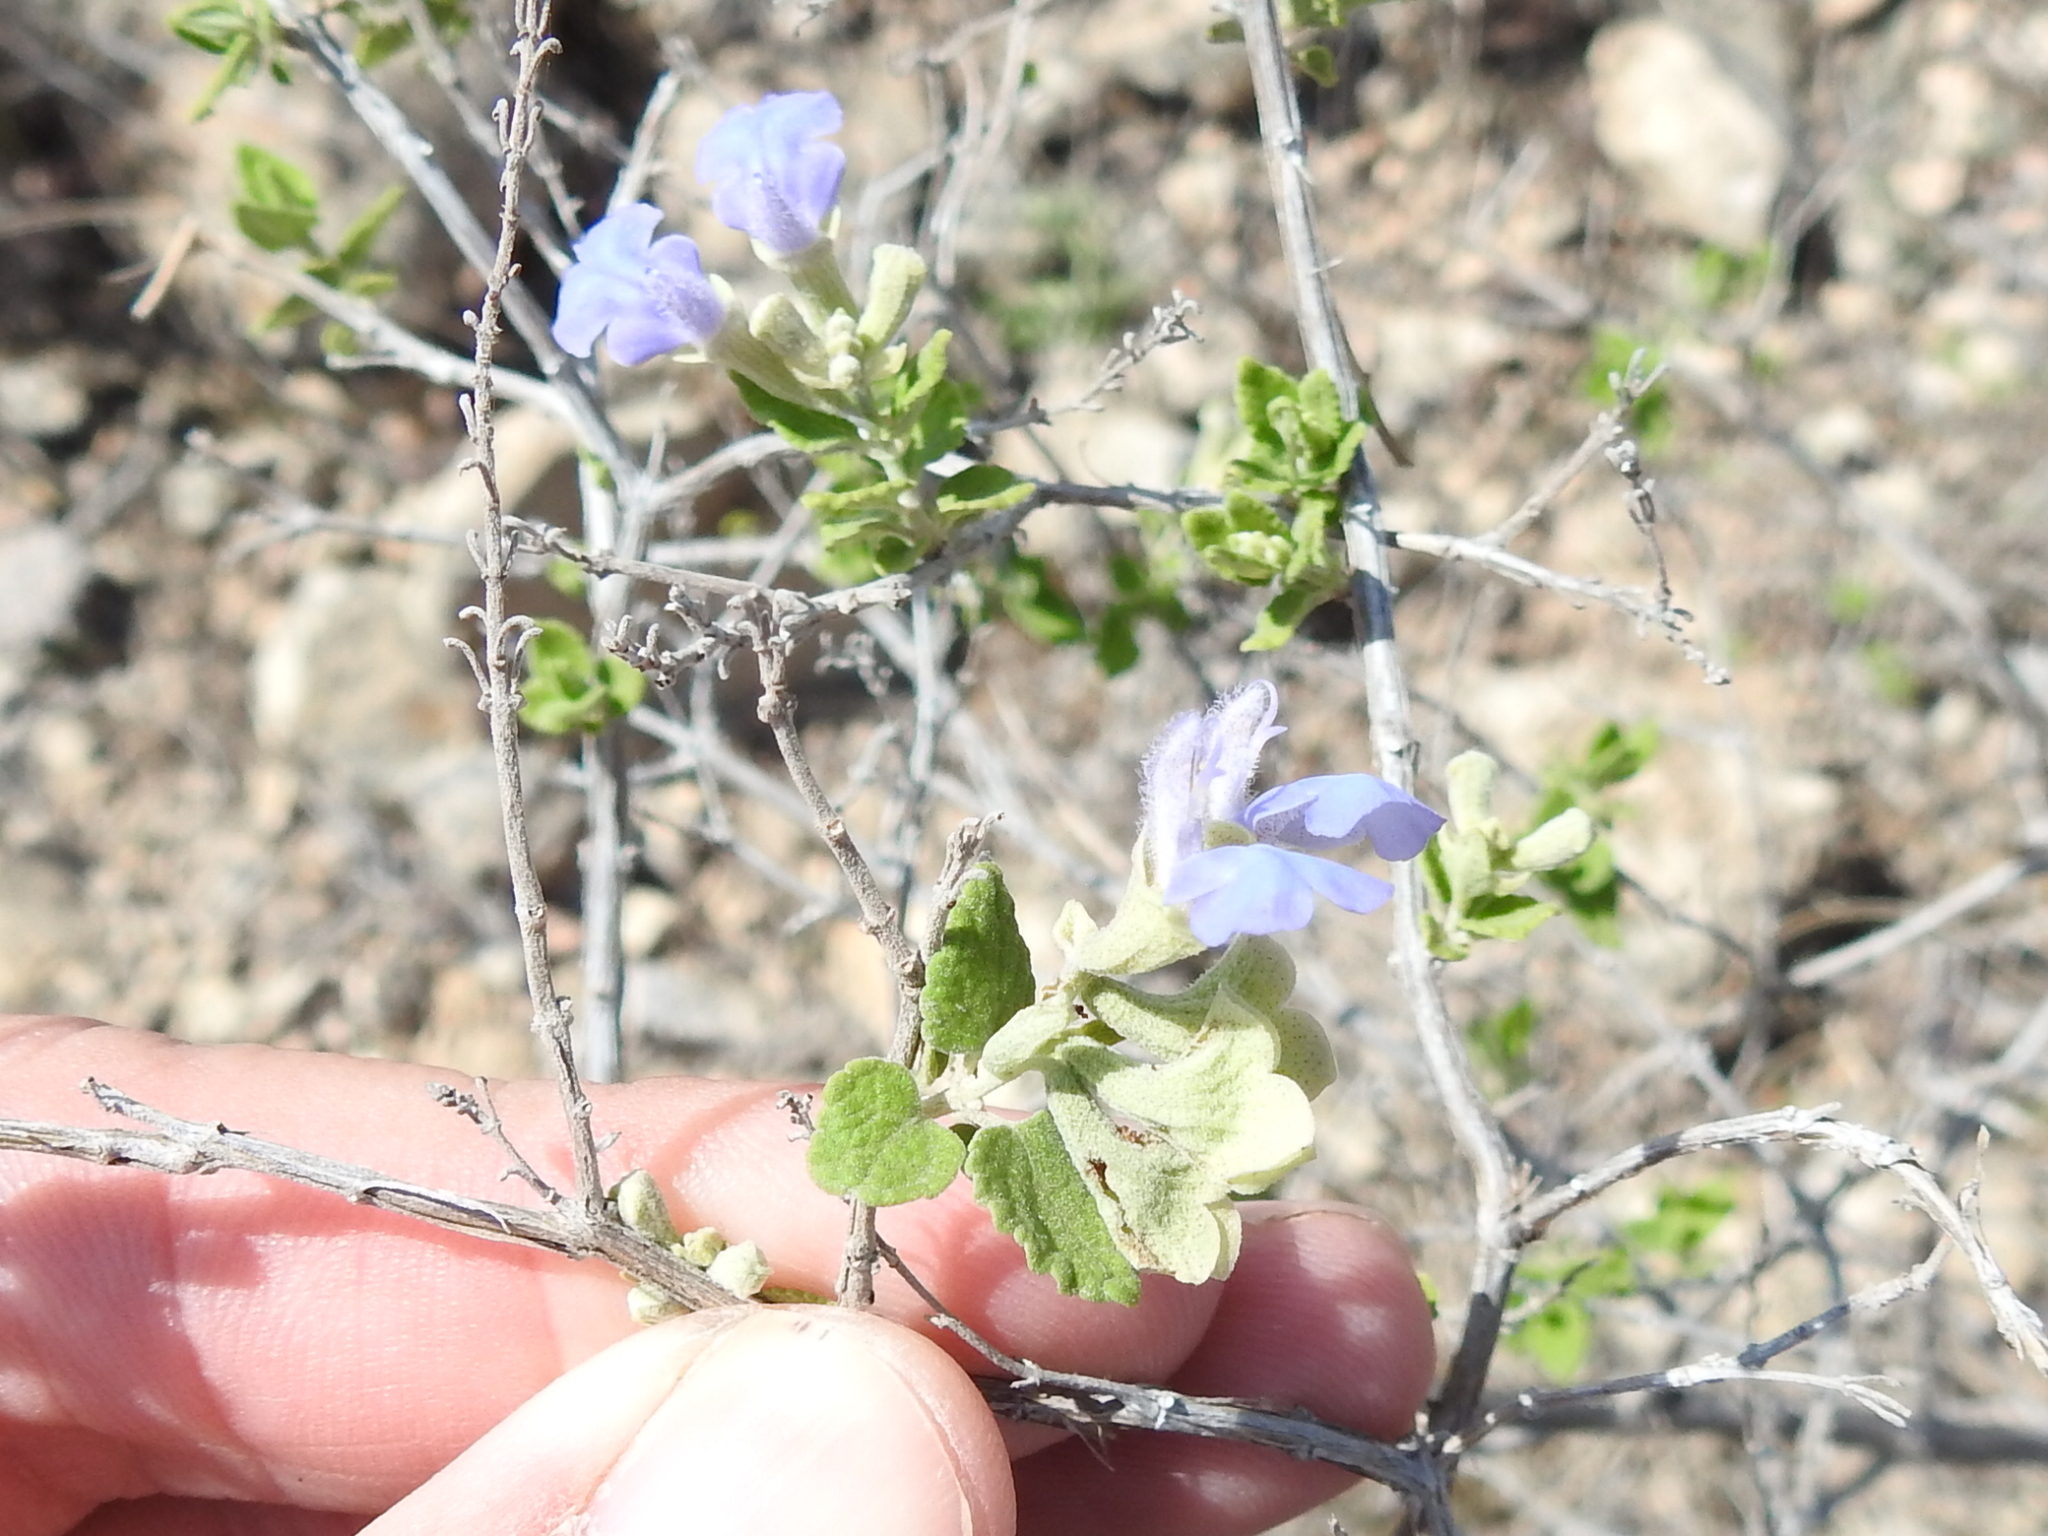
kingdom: Plantae
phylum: Tracheophyta
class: Magnoliopsida
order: Lamiales
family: Lamiaceae
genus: Salvia
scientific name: Salvia ballotiflora
